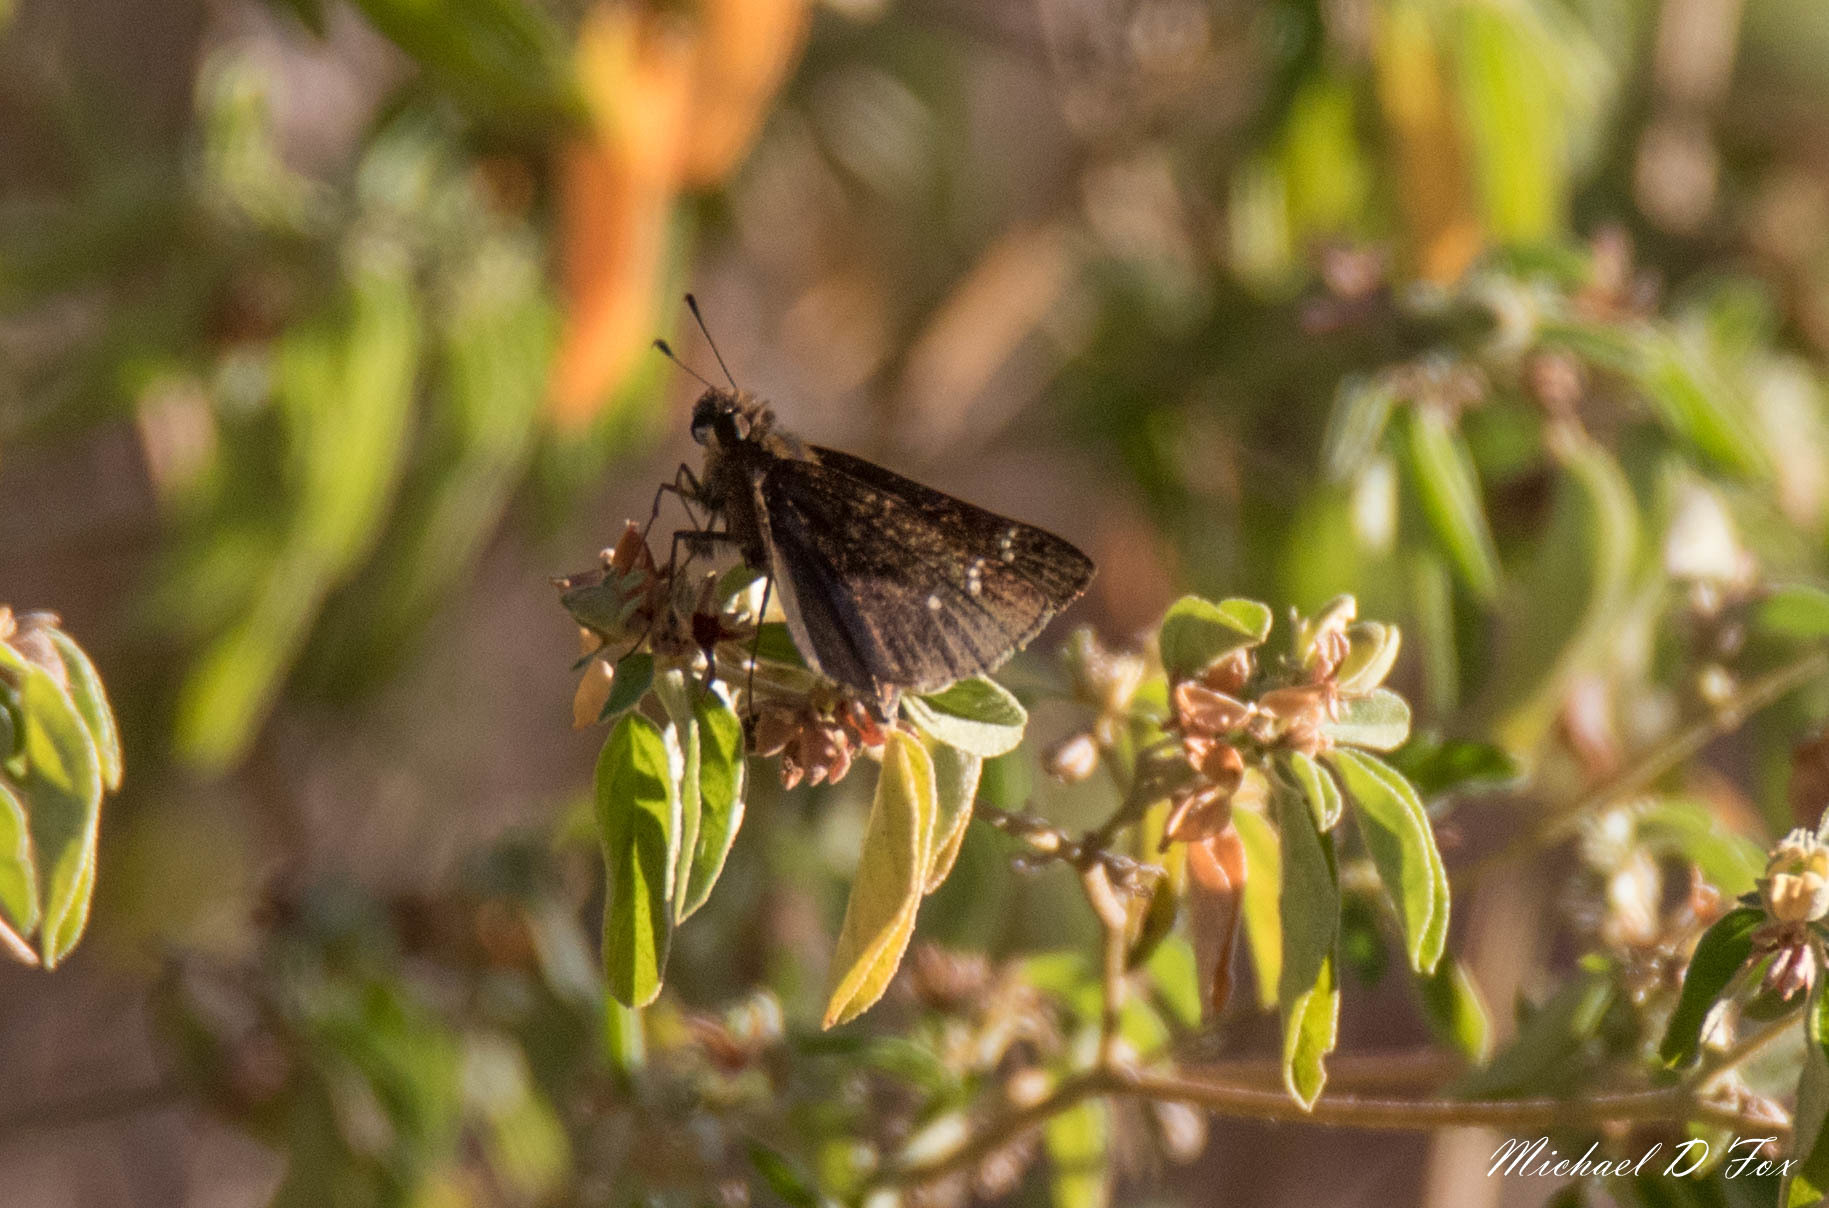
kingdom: Animalia
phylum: Arthropoda
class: Insecta
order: Lepidoptera
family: Hesperiidae
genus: Lerema
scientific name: Lerema accius
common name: Clouded skipper
